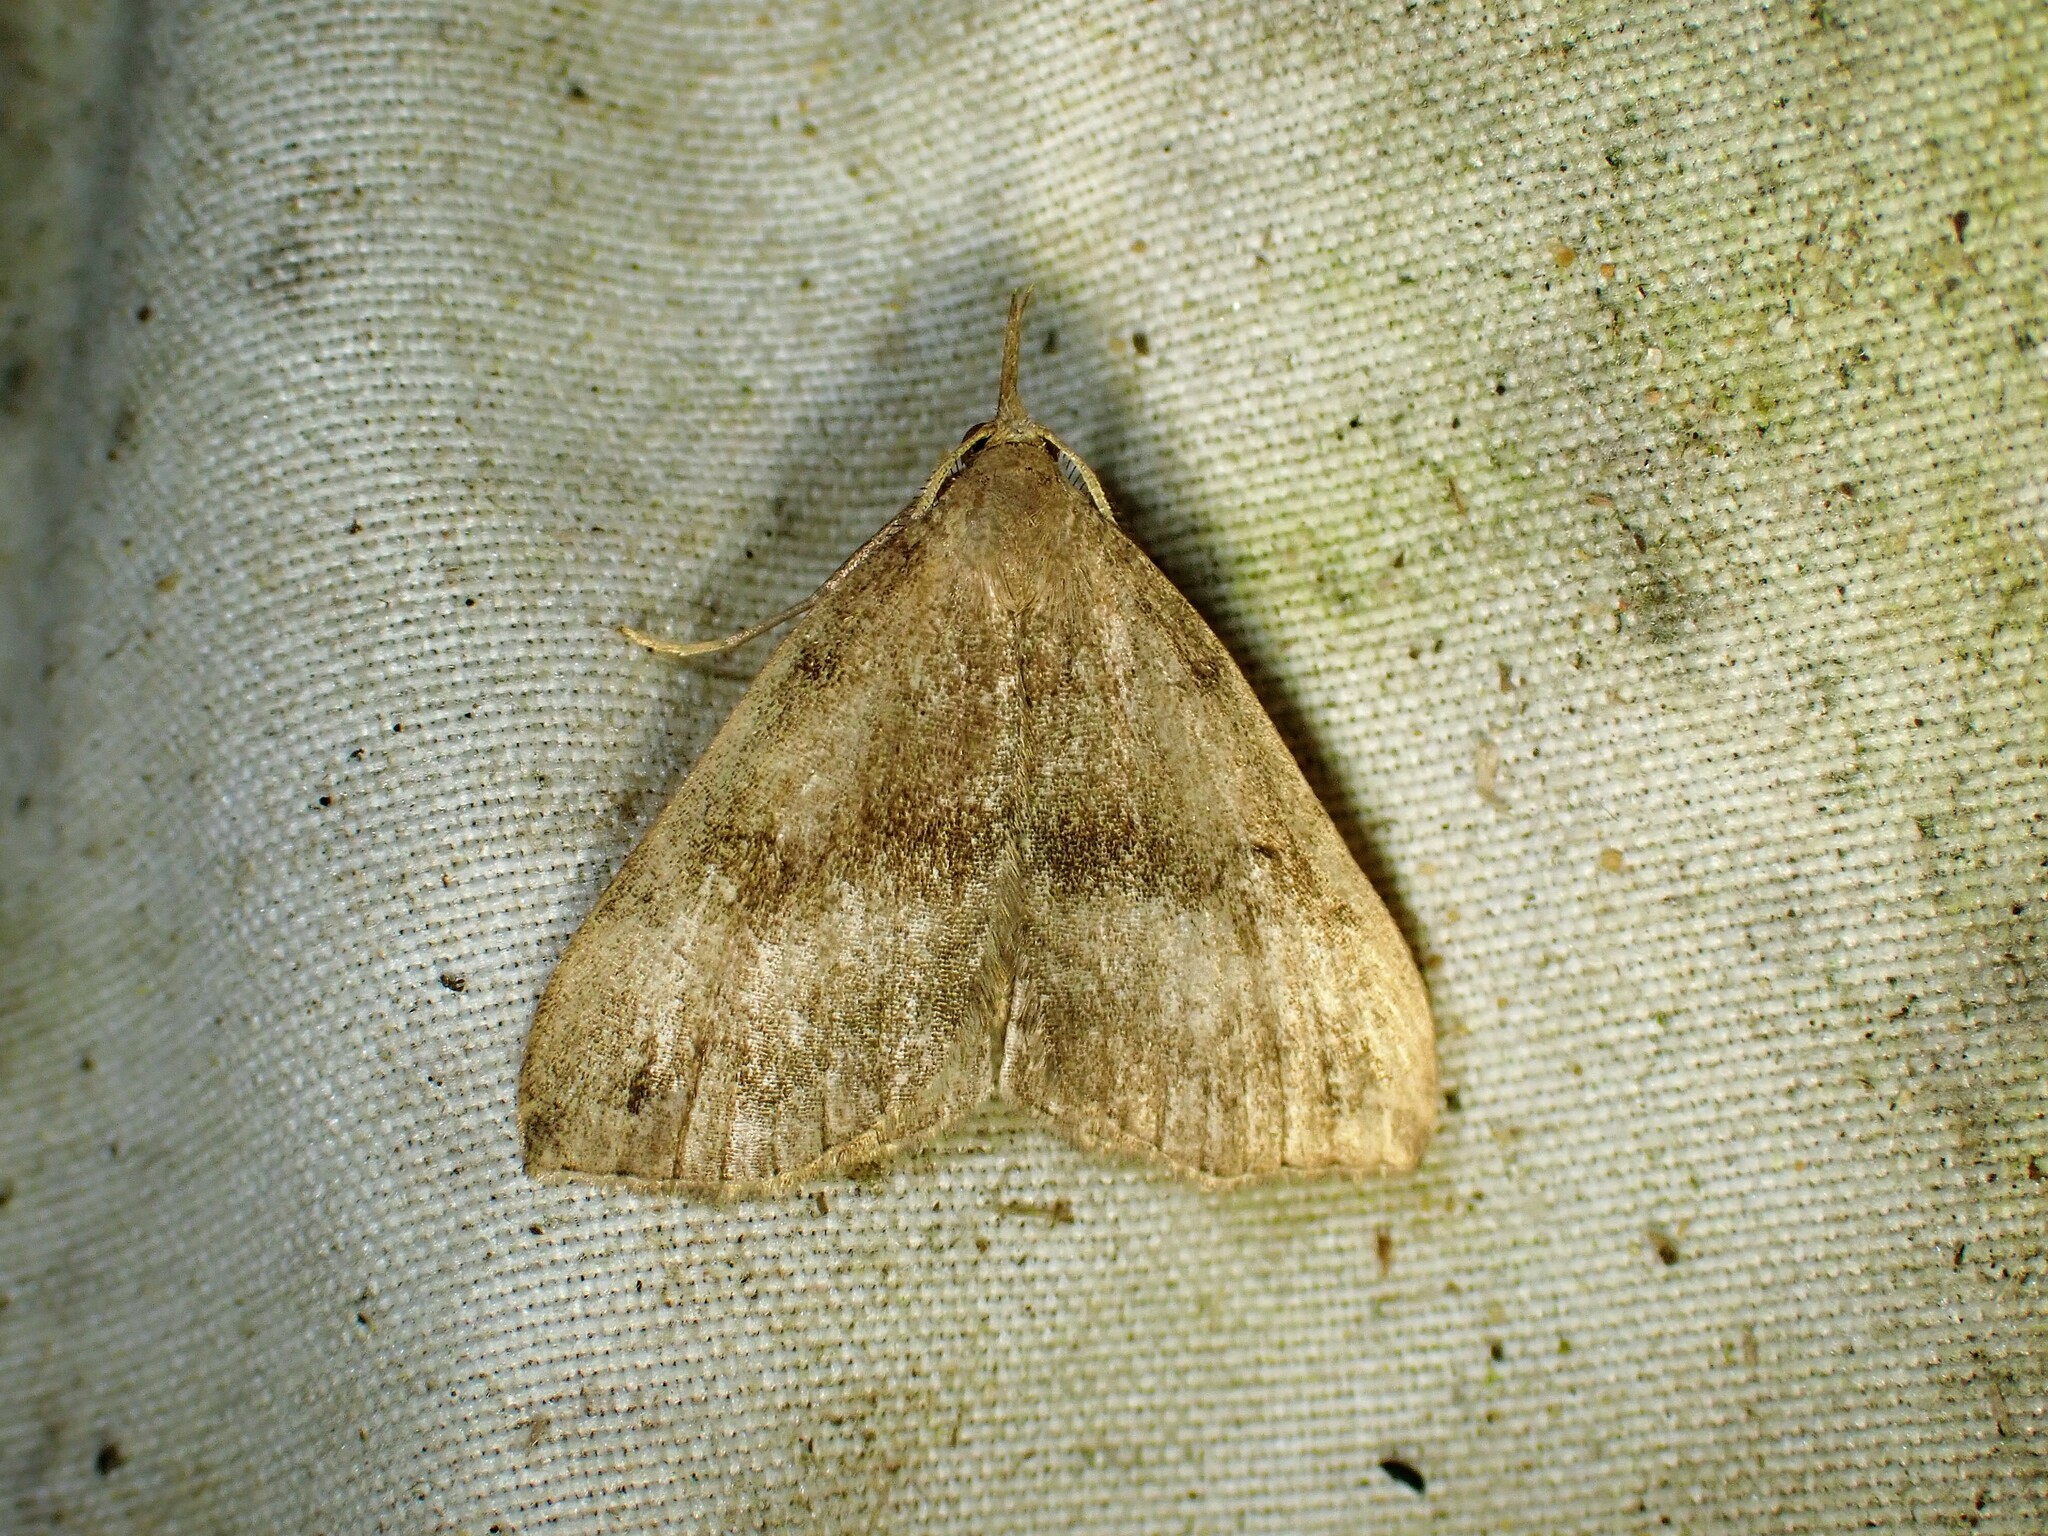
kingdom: Animalia
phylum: Arthropoda
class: Insecta
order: Lepidoptera
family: Erebidae
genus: Phalaenostola
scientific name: Phalaenostola eumelusalis
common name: Dark phalaenostola moth
